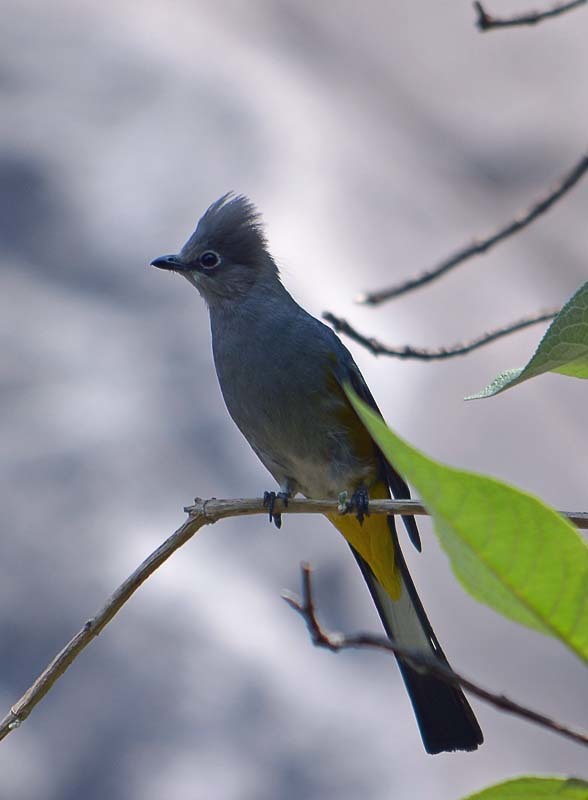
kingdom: Animalia
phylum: Chordata
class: Aves
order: Passeriformes
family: Ptilogonatidae
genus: Ptilogonys
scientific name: Ptilogonys cinereus
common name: Gray silky-flycatcher
